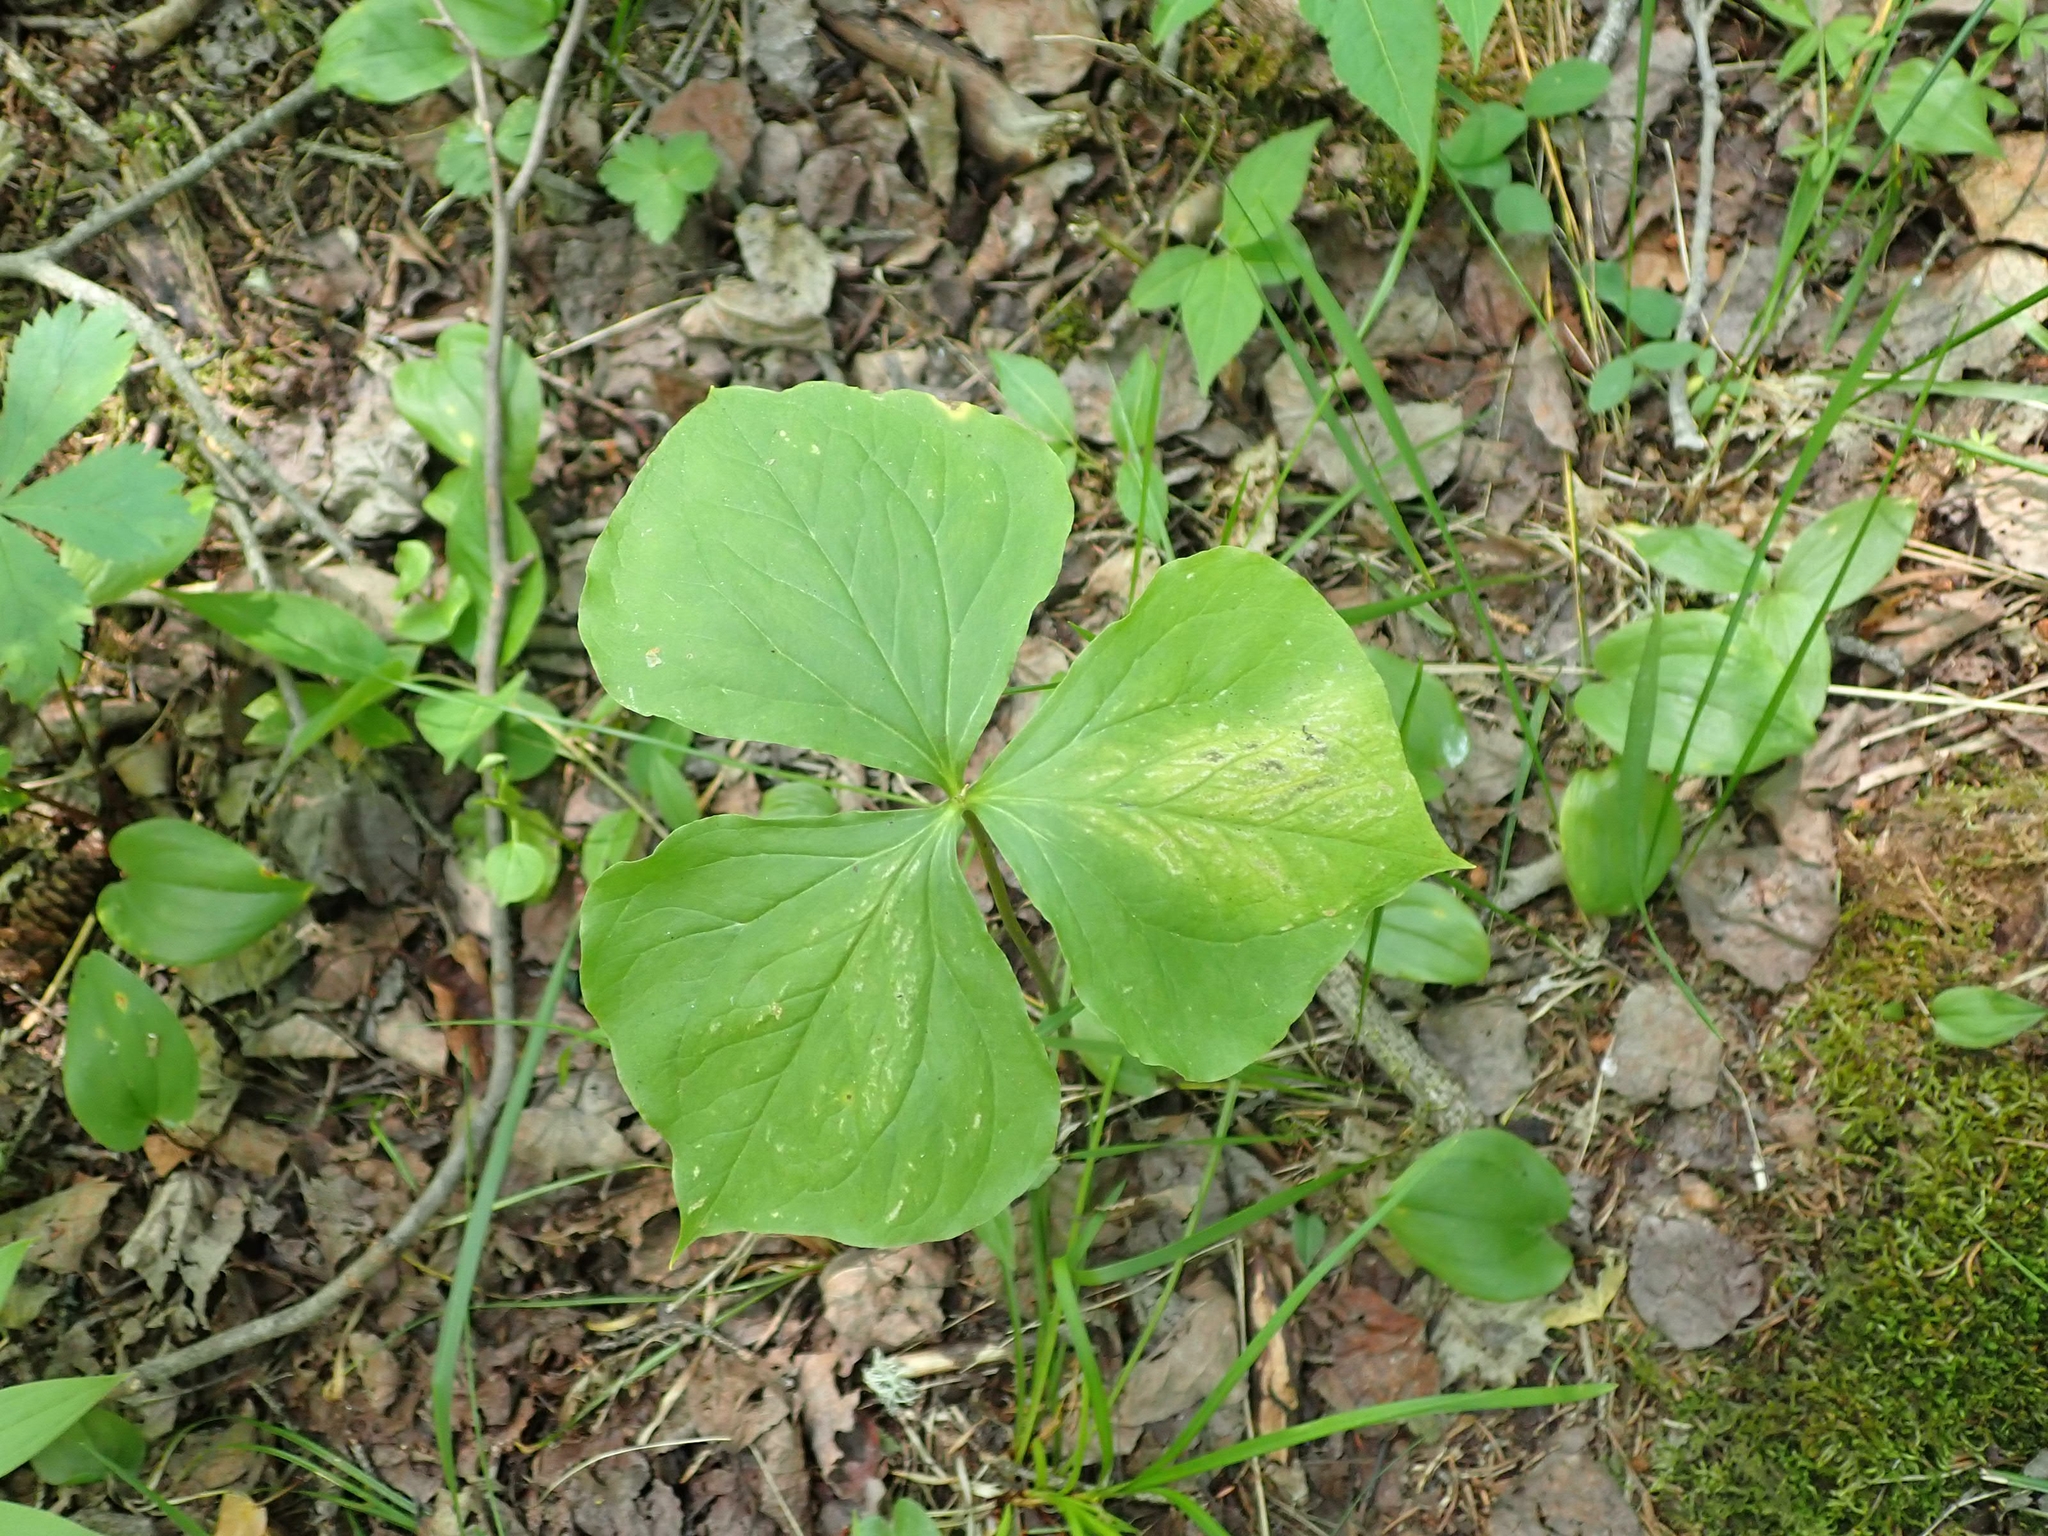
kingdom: Plantae
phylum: Tracheophyta
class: Liliopsida
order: Liliales
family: Melanthiaceae
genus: Trillium
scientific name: Trillium cernuum
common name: Nodding trillium
